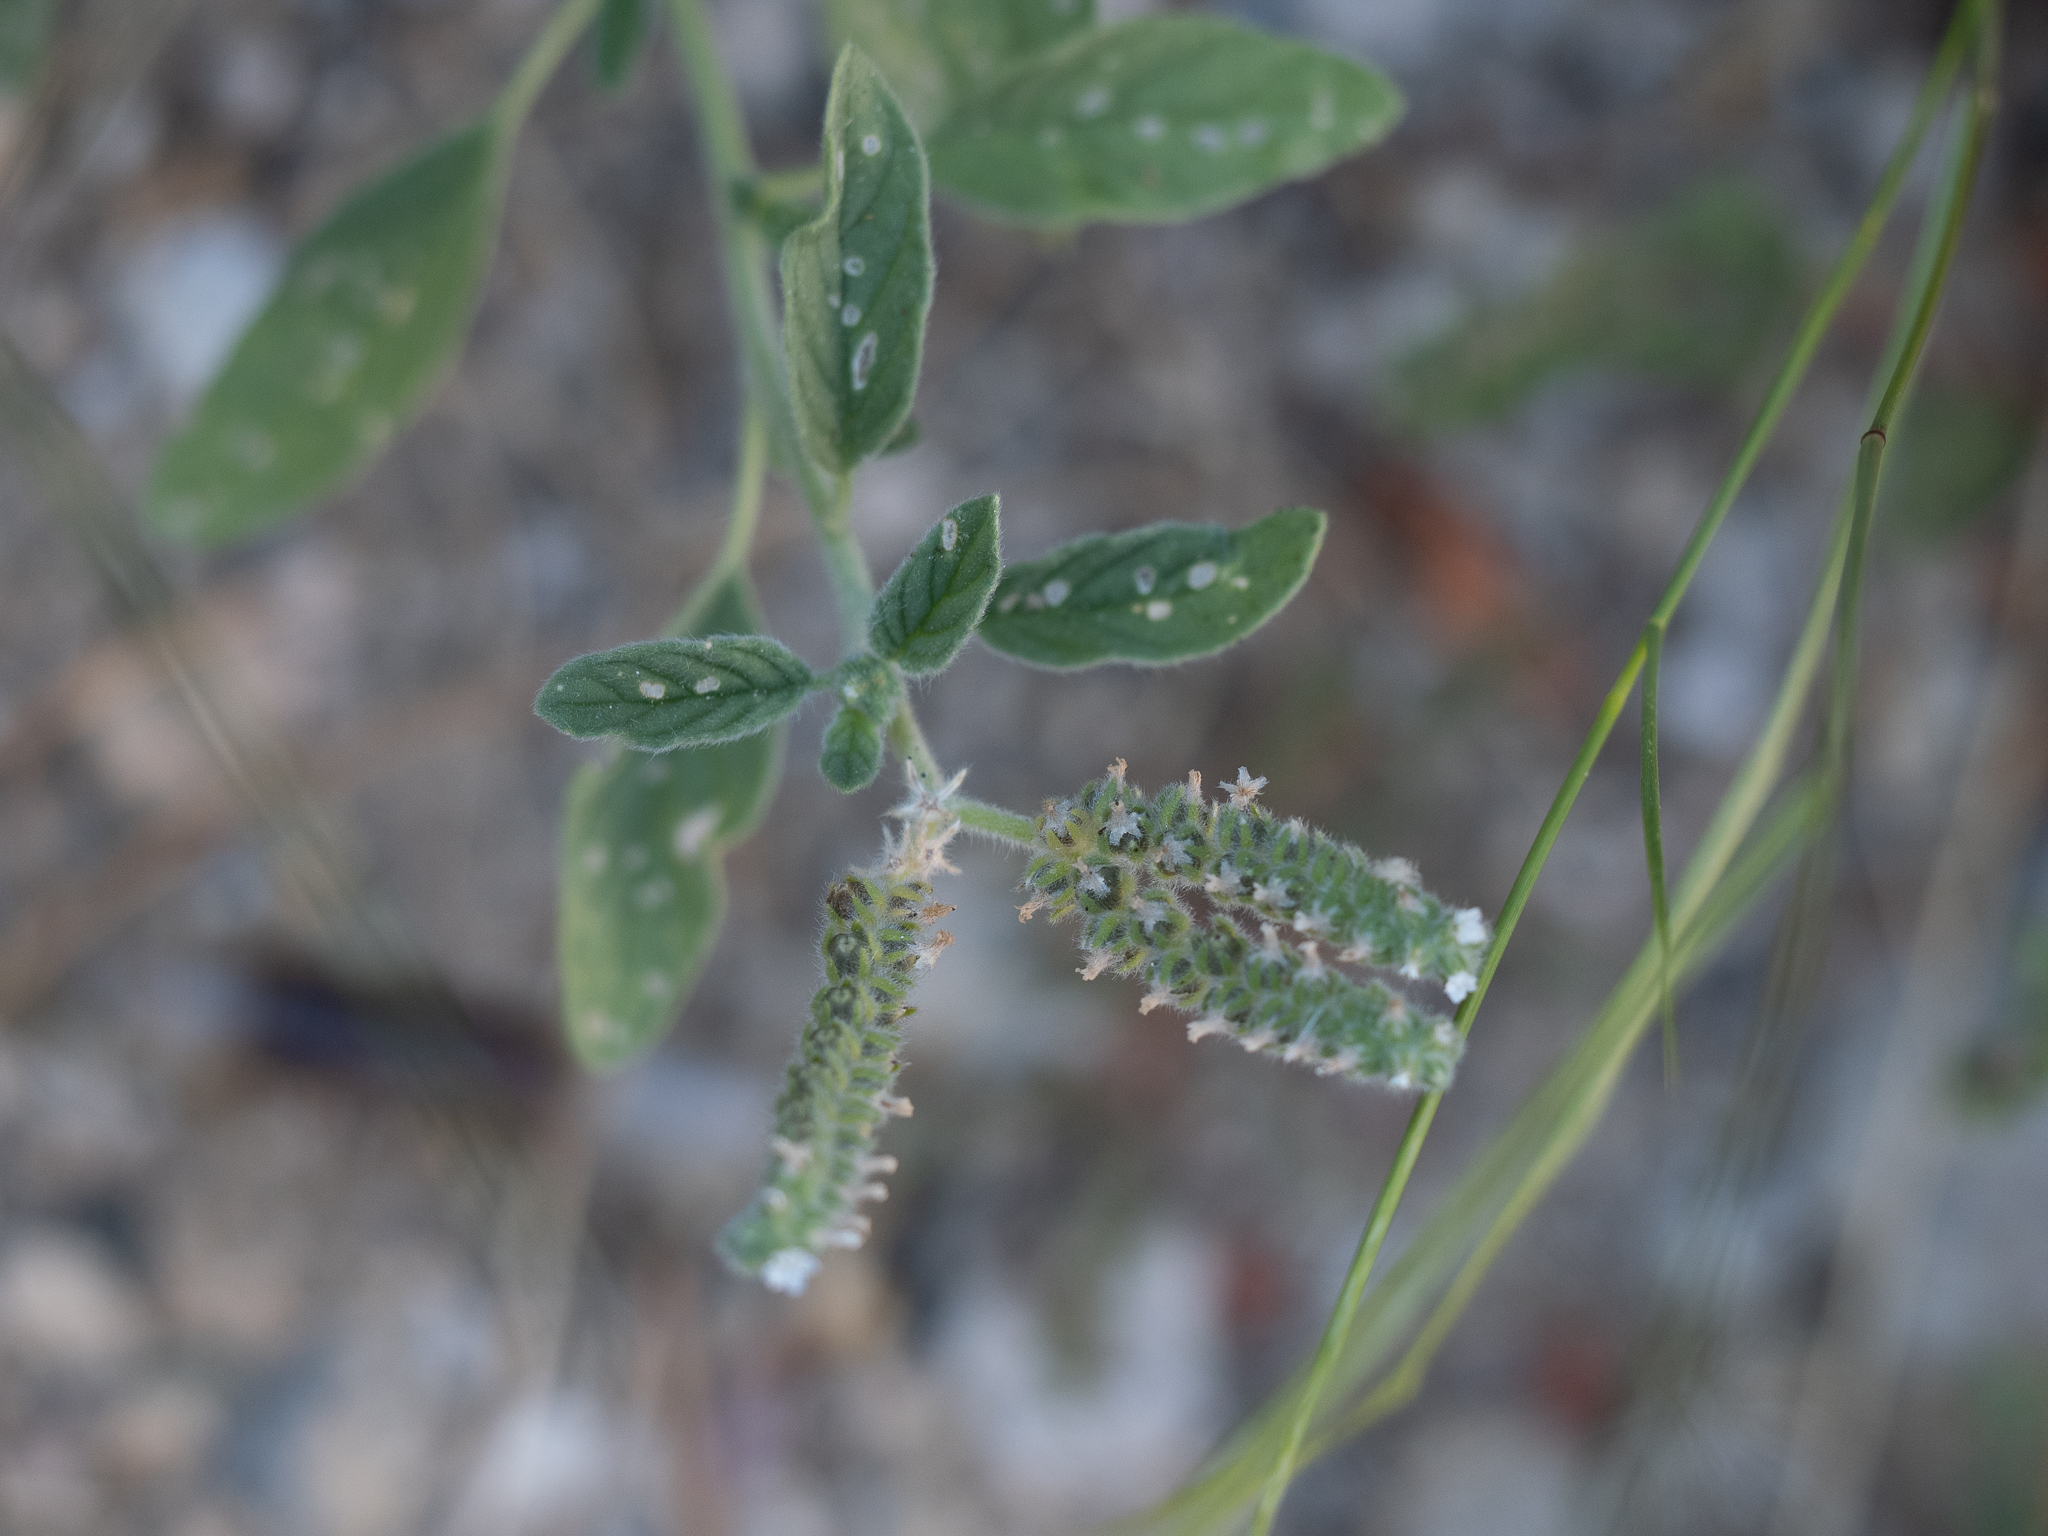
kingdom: Plantae
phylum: Tracheophyta
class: Magnoliopsida
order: Boraginales
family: Heliotropiaceae
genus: Heliotropium
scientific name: Heliotropium europaeum
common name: European heliotrope
